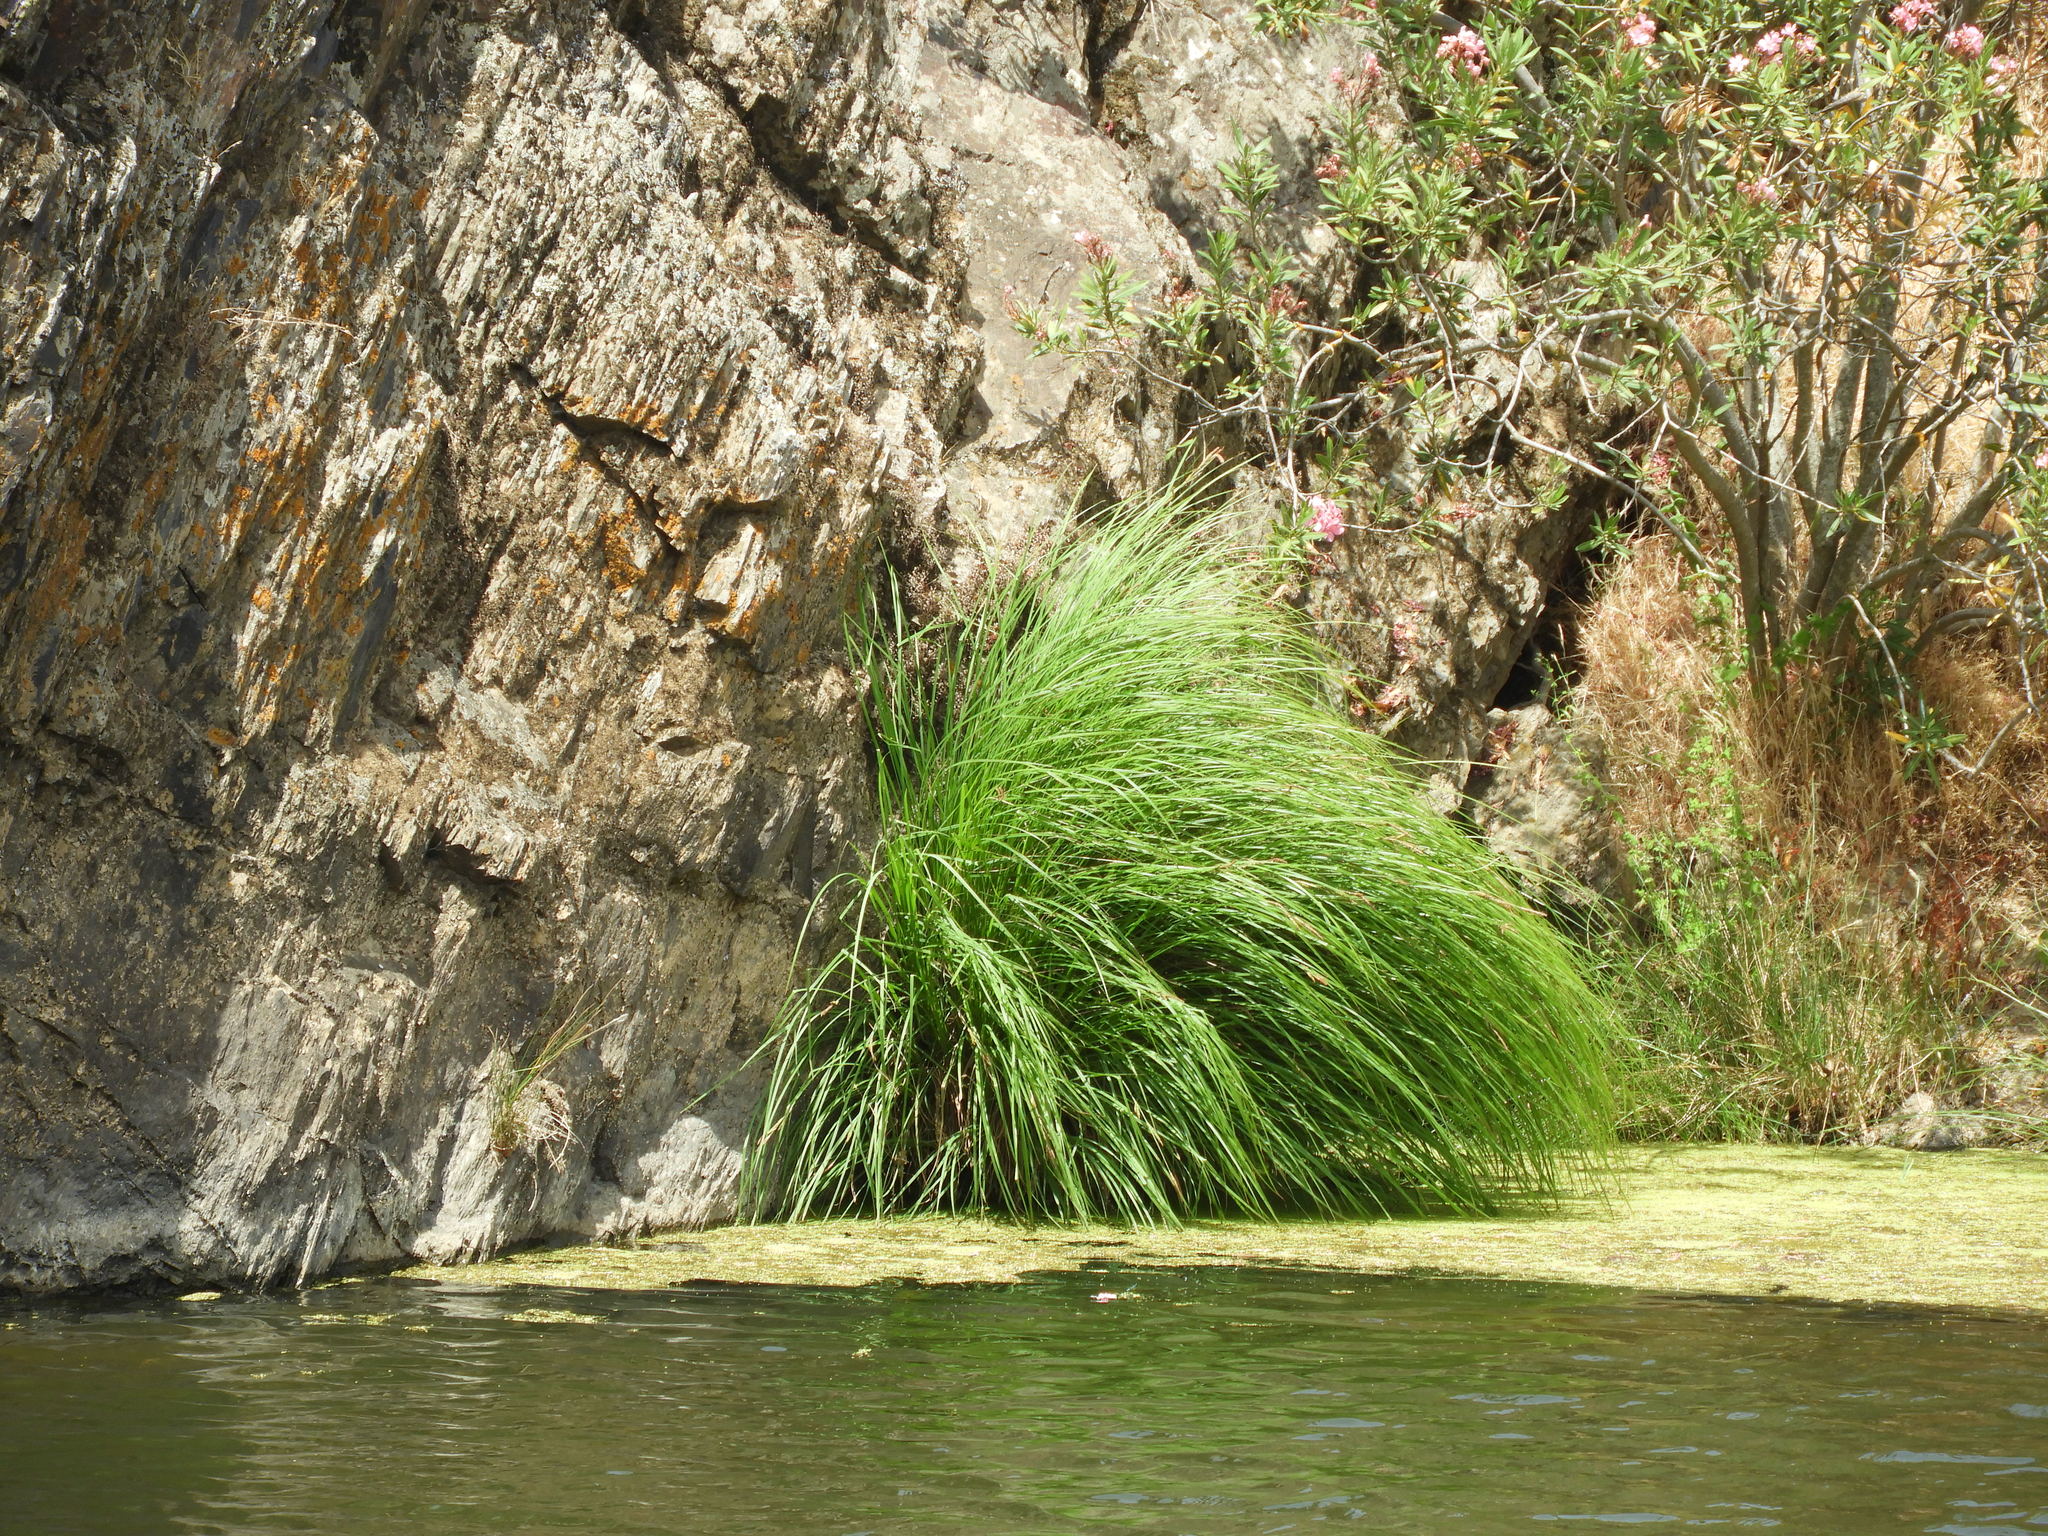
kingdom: Plantae
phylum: Tracheophyta
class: Liliopsida
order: Poales
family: Cyperaceae
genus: Carex
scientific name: Carex elata
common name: Tufted sedge
